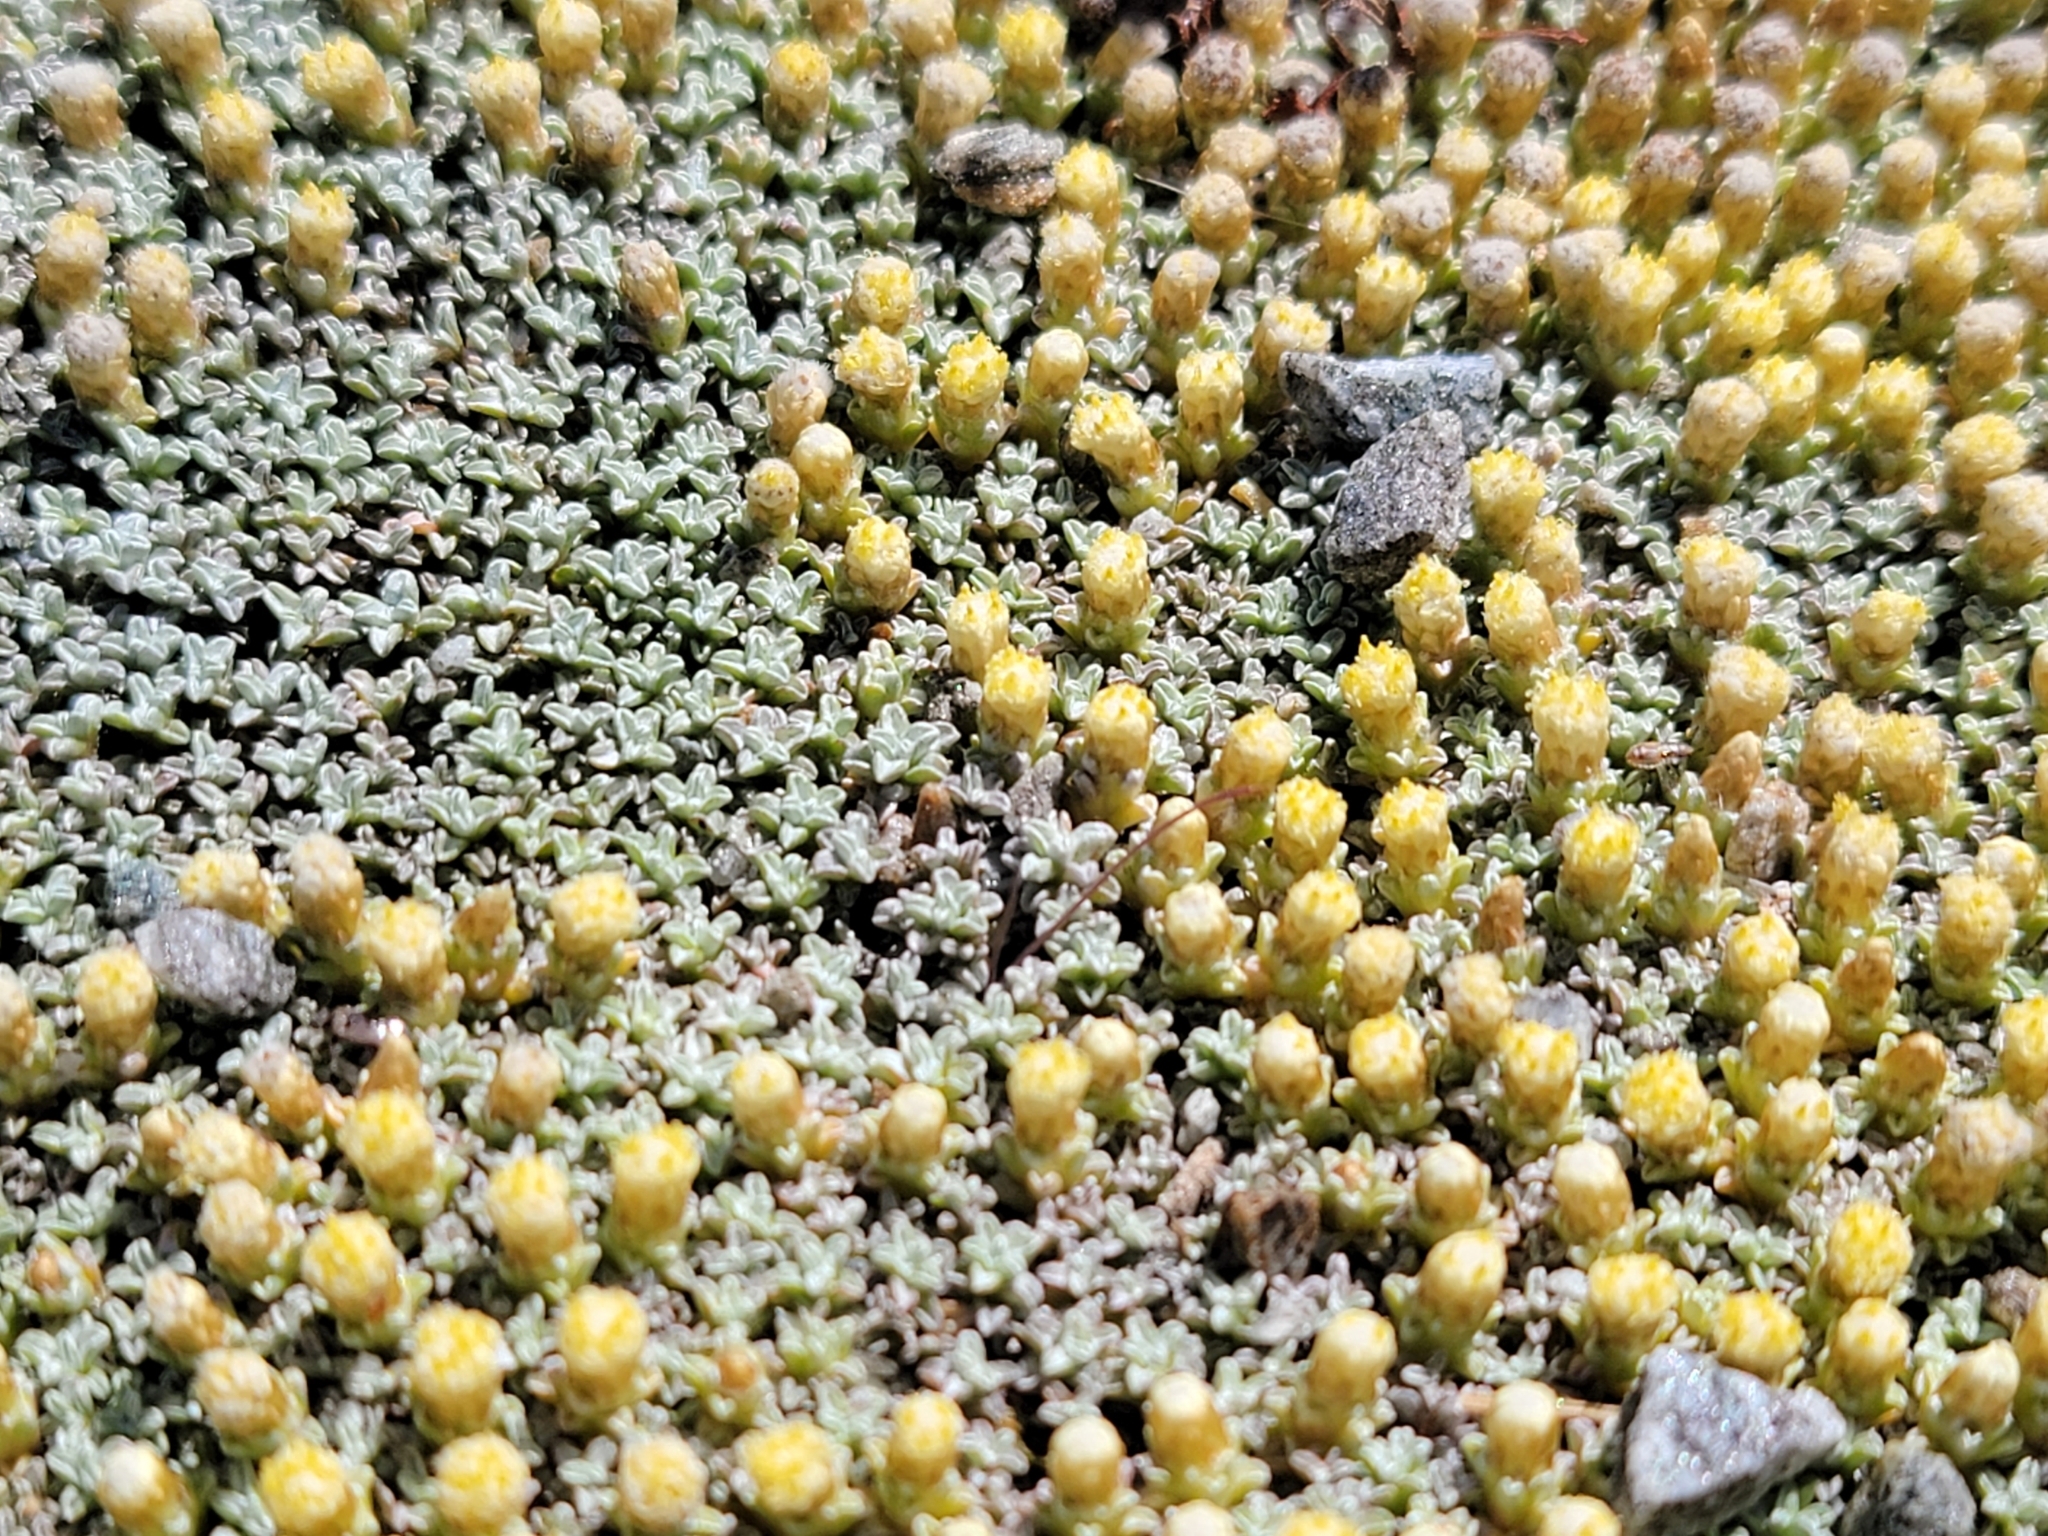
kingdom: Plantae
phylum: Tracheophyta
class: Magnoliopsida
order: Asterales
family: Asteraceae
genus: Raoulia
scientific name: Raoulia hookeri
